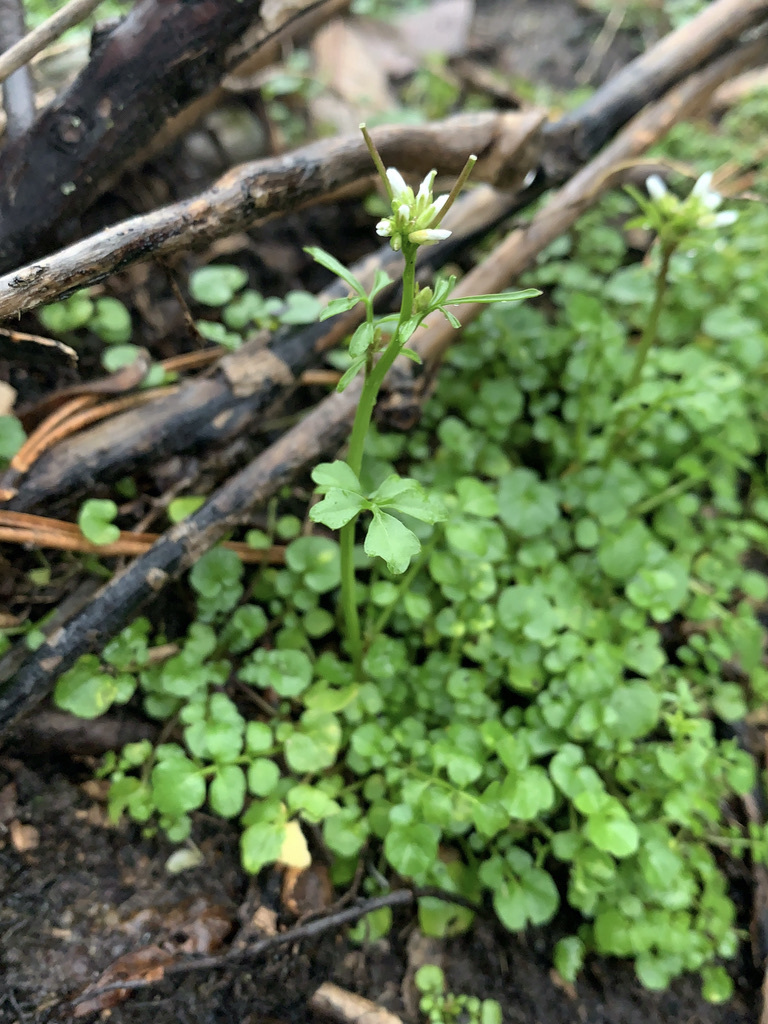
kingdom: Plantae
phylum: Tracheophyta
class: Magnoliopsida
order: Brassicales
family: Brassicaceae
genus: Cardamine
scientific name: Cardamine hirsuta
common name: Hairy bittercress
